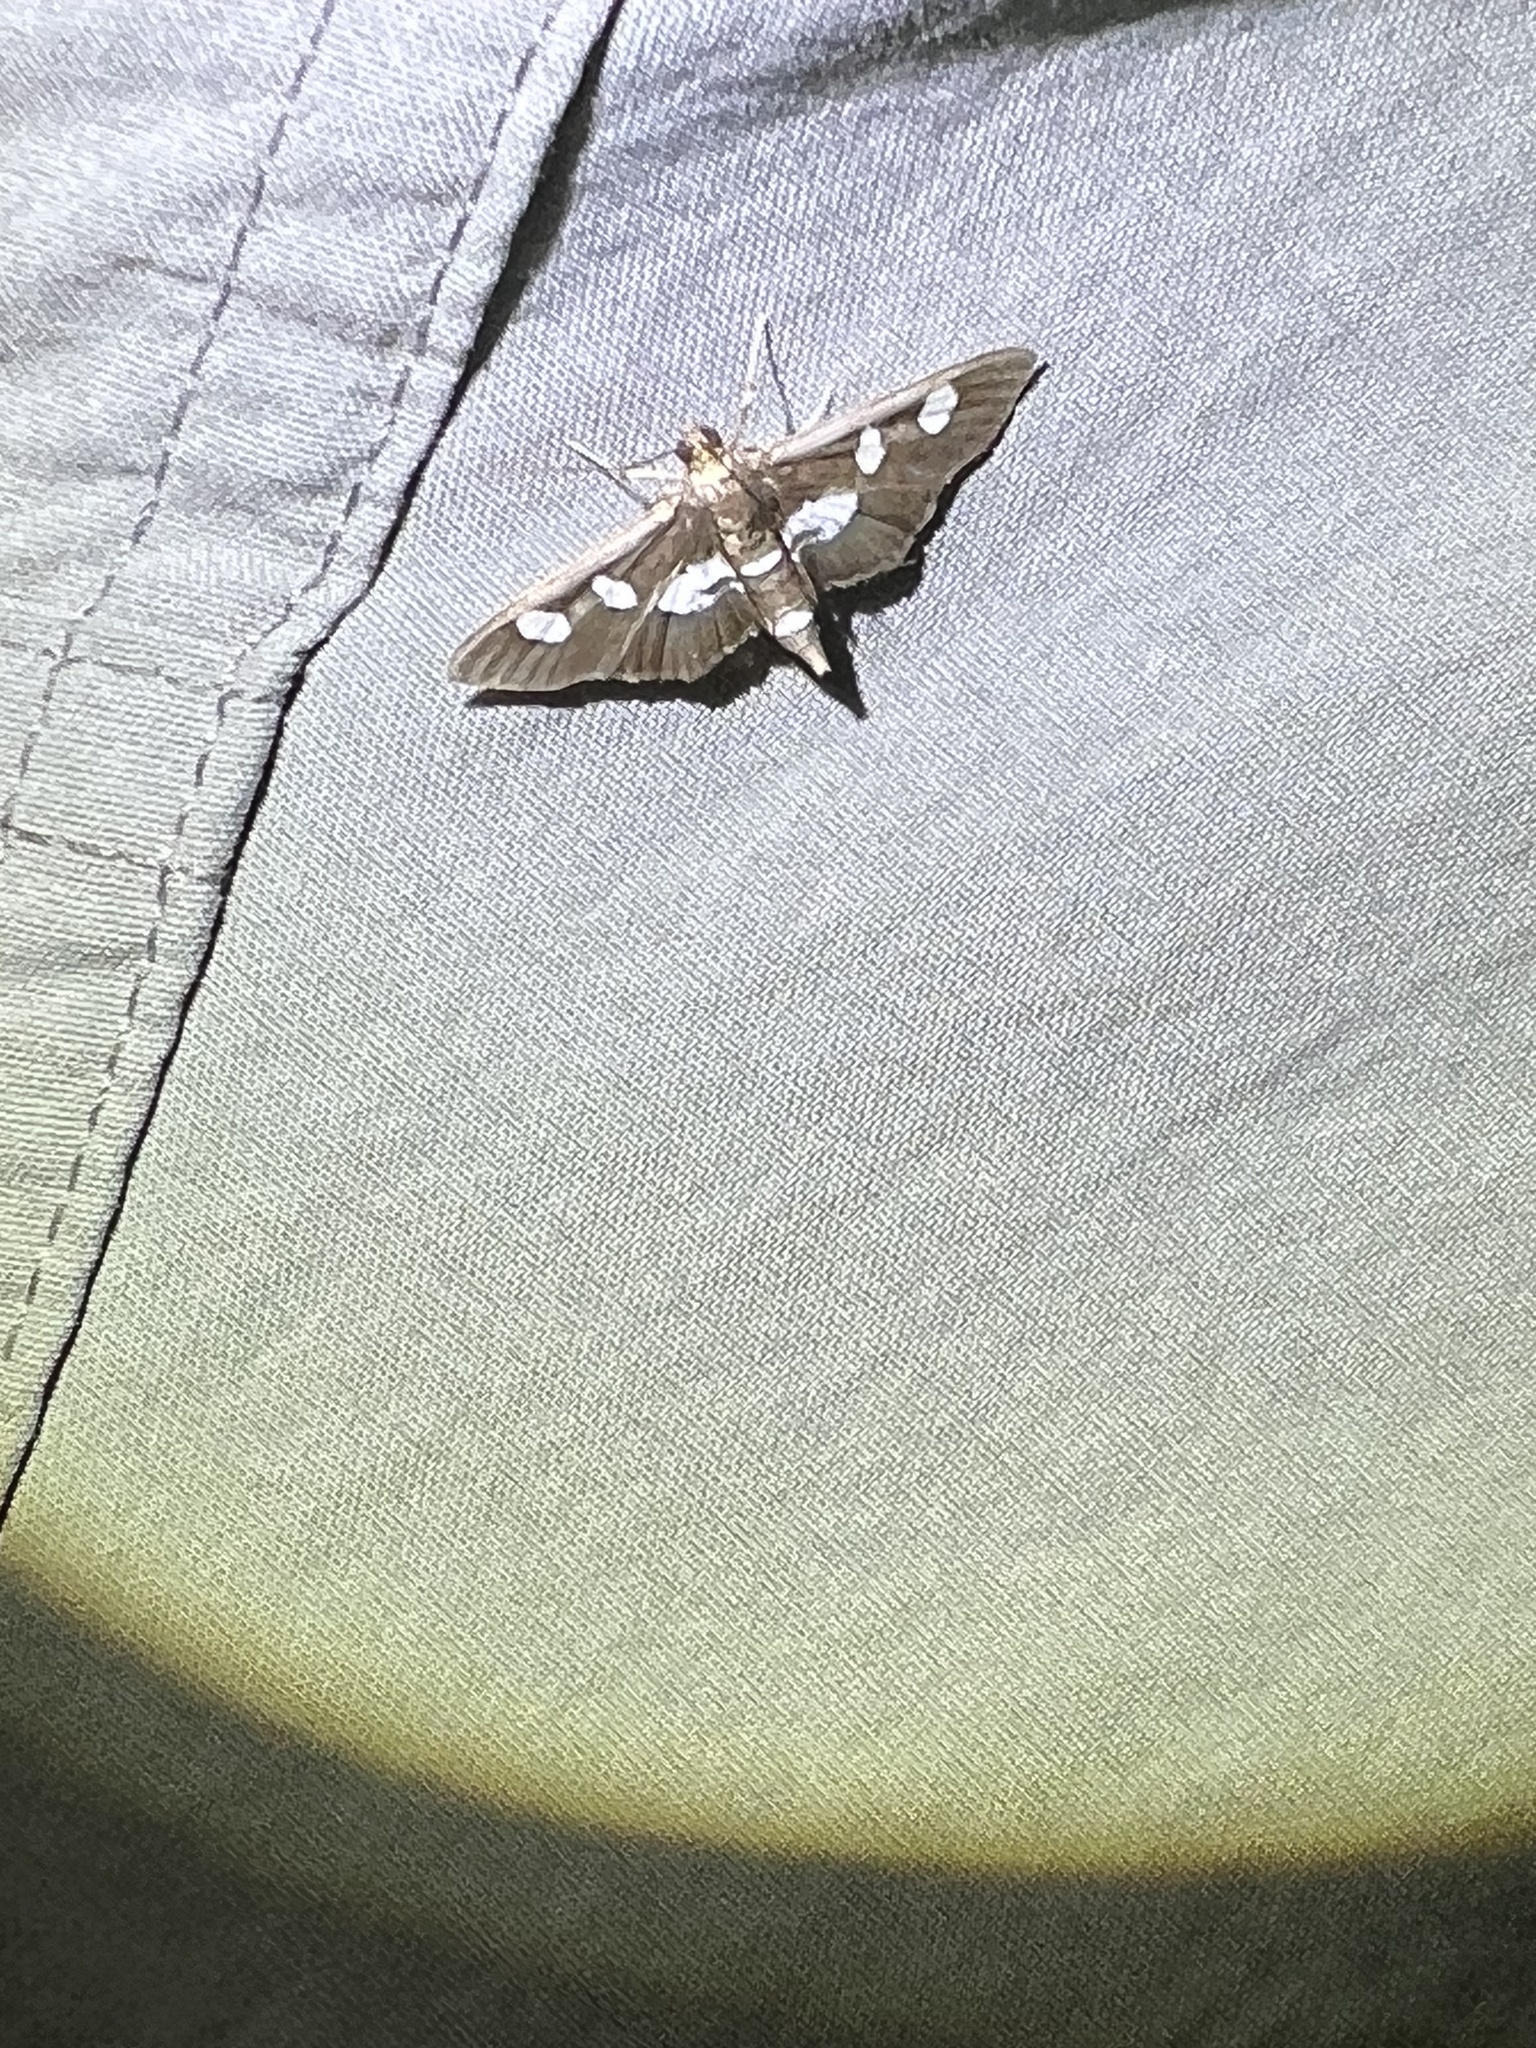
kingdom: Animalia
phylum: Arthropoda
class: Insecta
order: Lepidoptera
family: Crambidae
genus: Desmia
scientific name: Desmia
